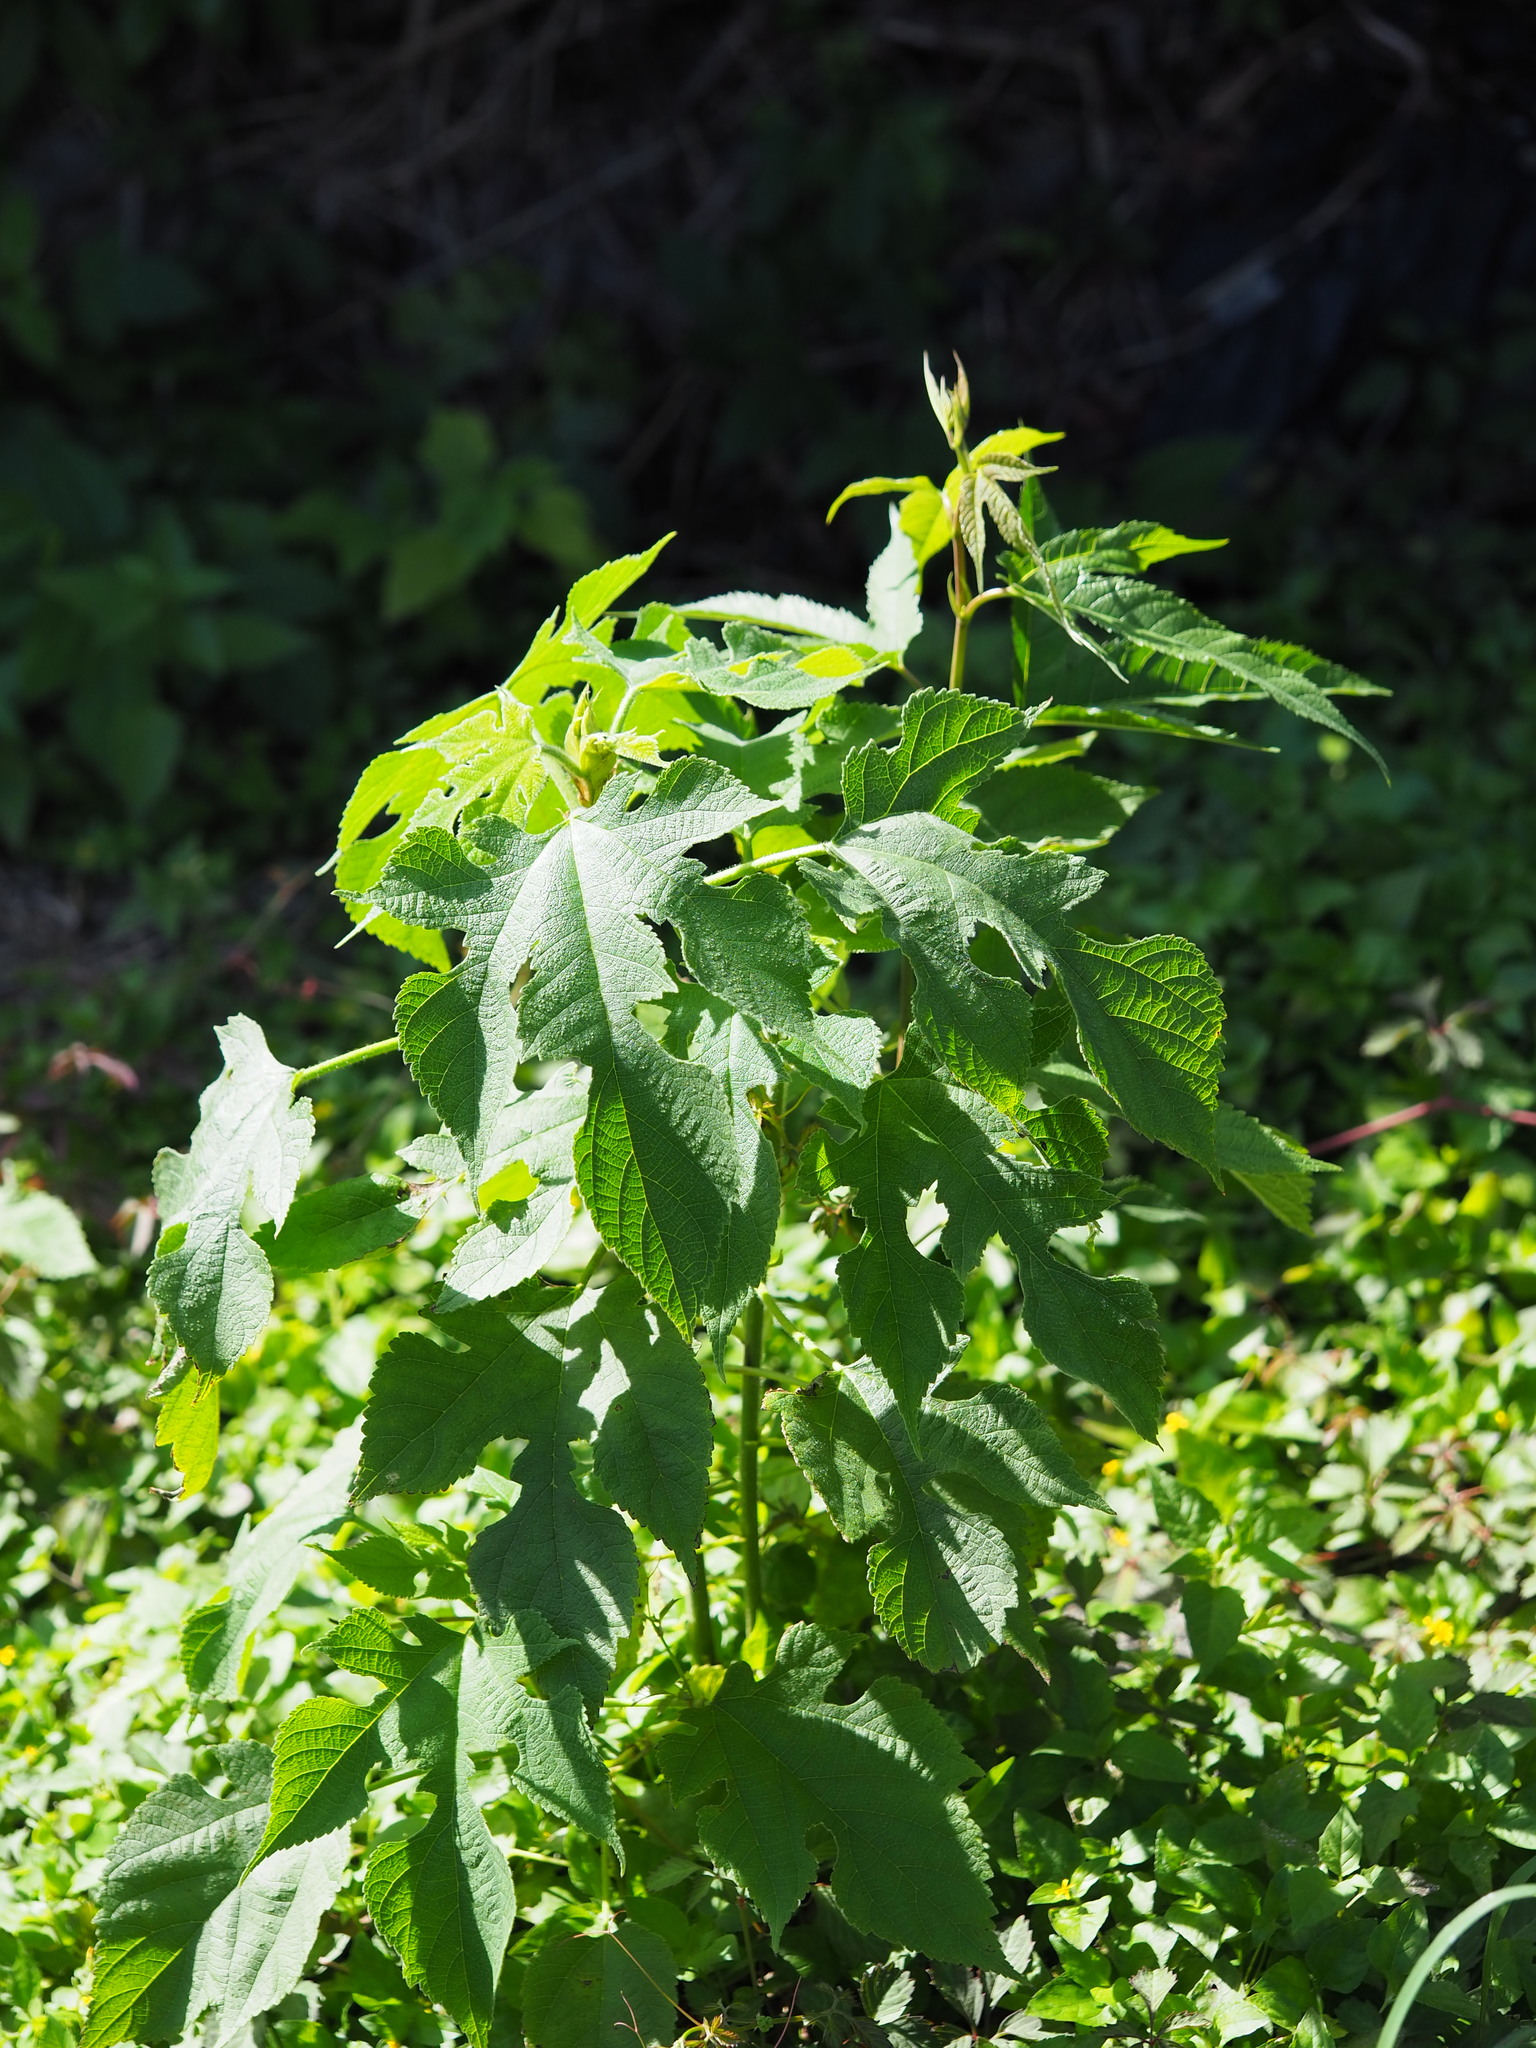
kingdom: Plantae
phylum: Tracheophyta
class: Magnoliopsida
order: Rosales
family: Moraceae
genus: Broussonetia
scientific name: Broussonetia papyrifera
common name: Paper mulberry
